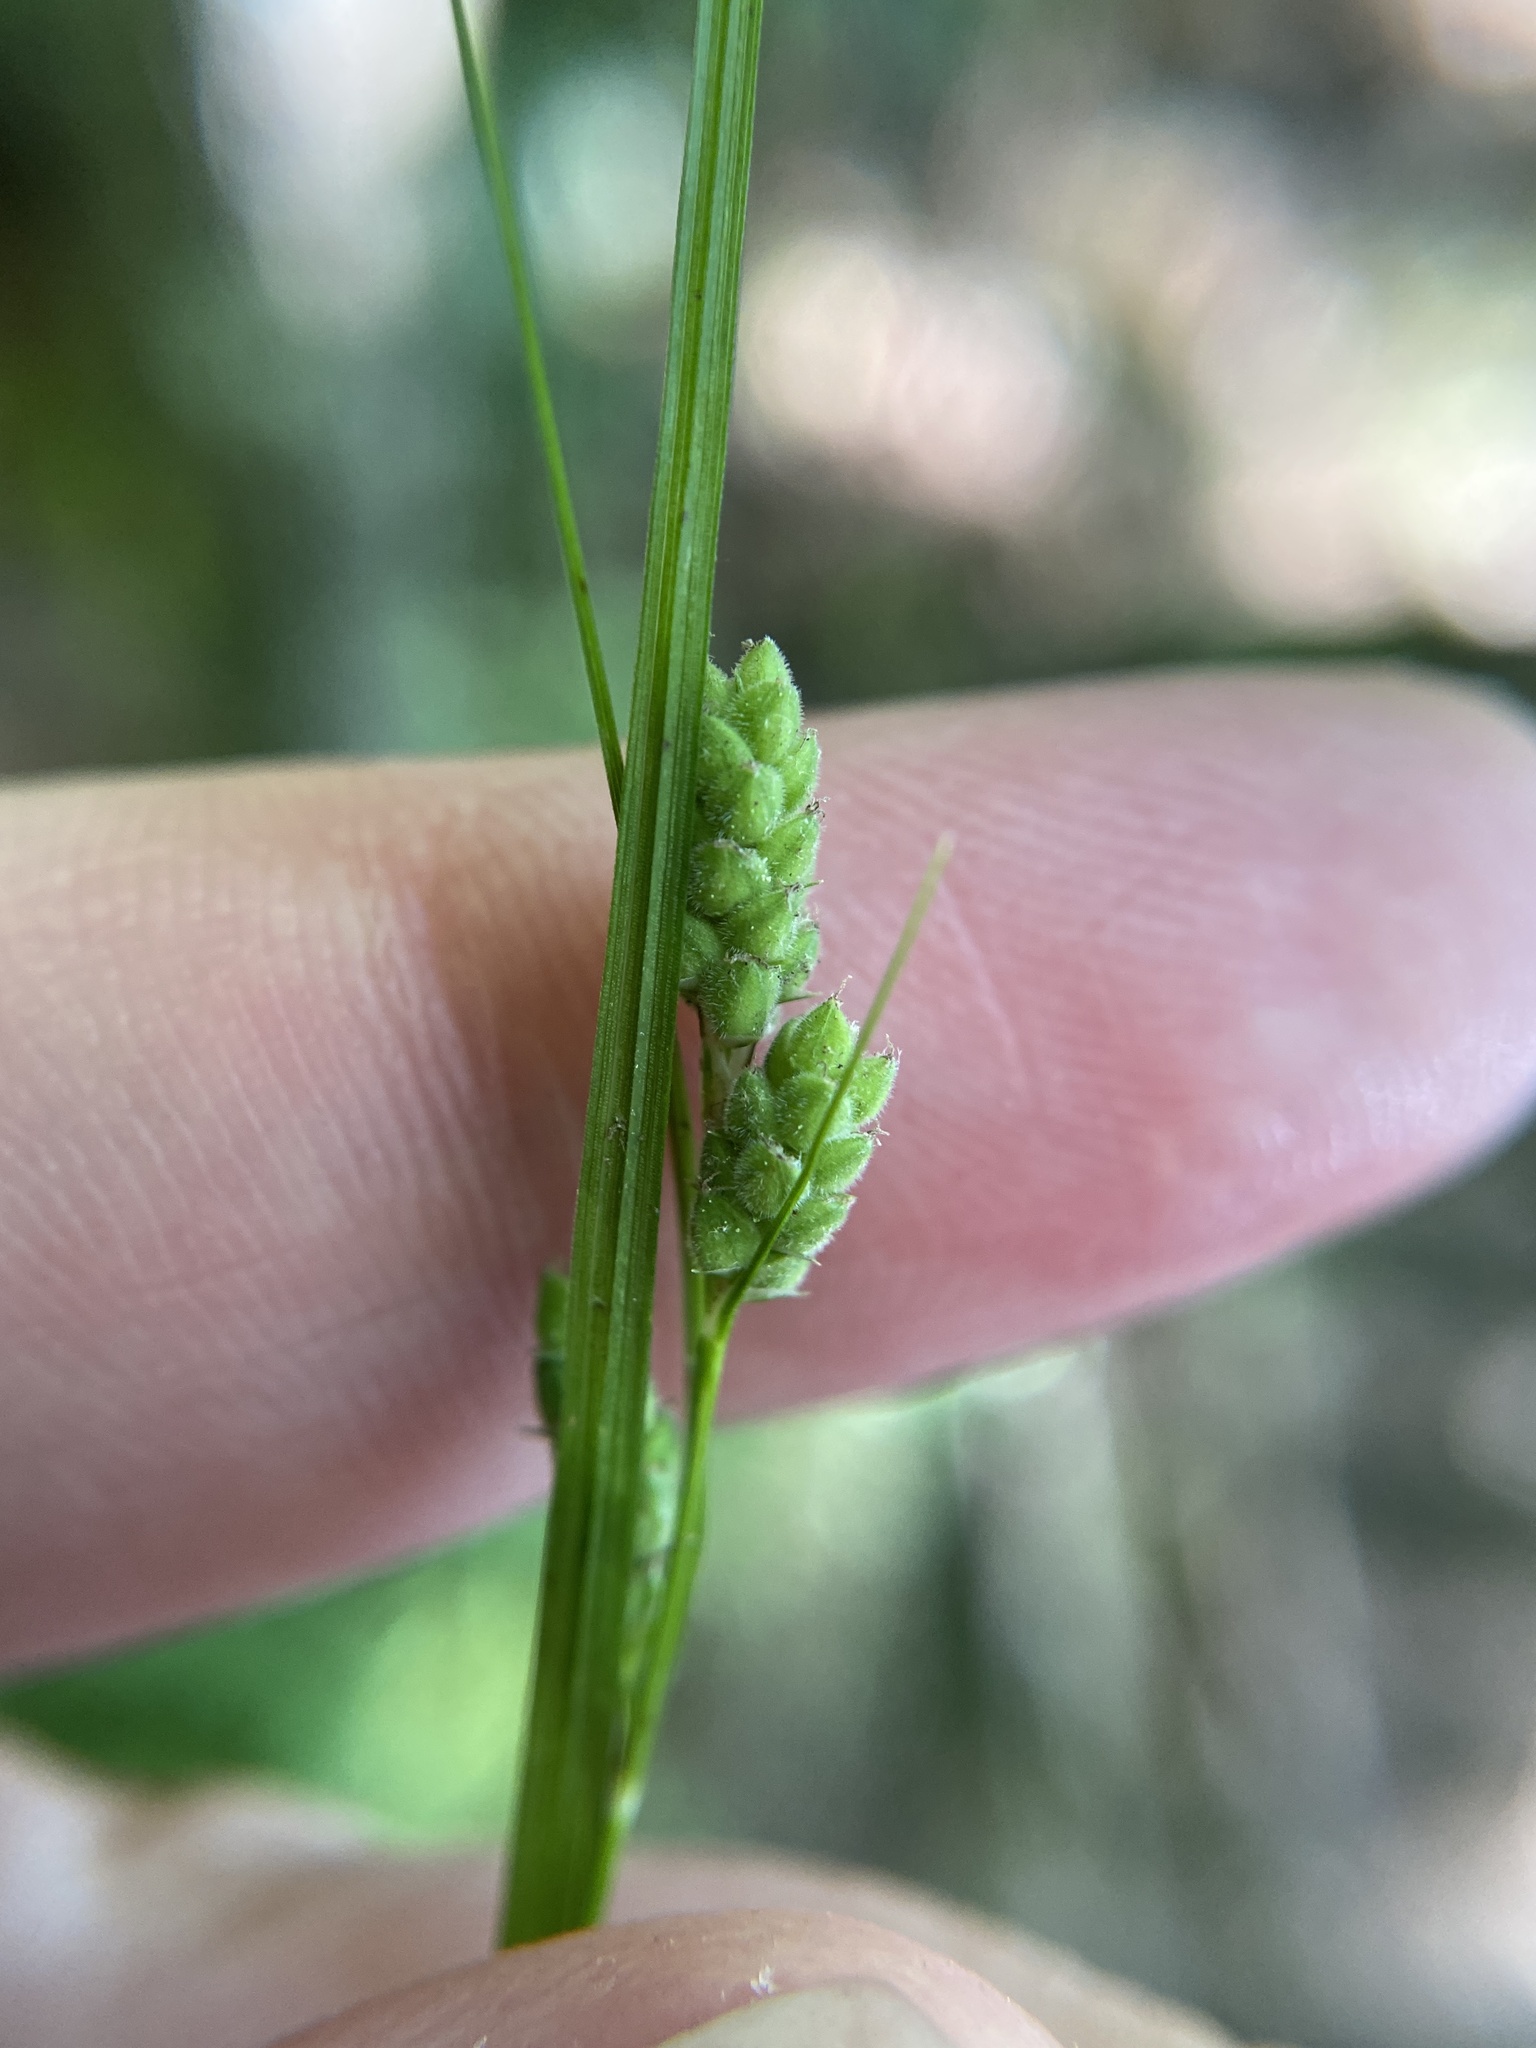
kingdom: Plantae
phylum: Tracheophyta
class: Liliopsida
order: Poales
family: Cyperaceae
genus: Carex
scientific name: Carex swanii
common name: Downy green sedge
